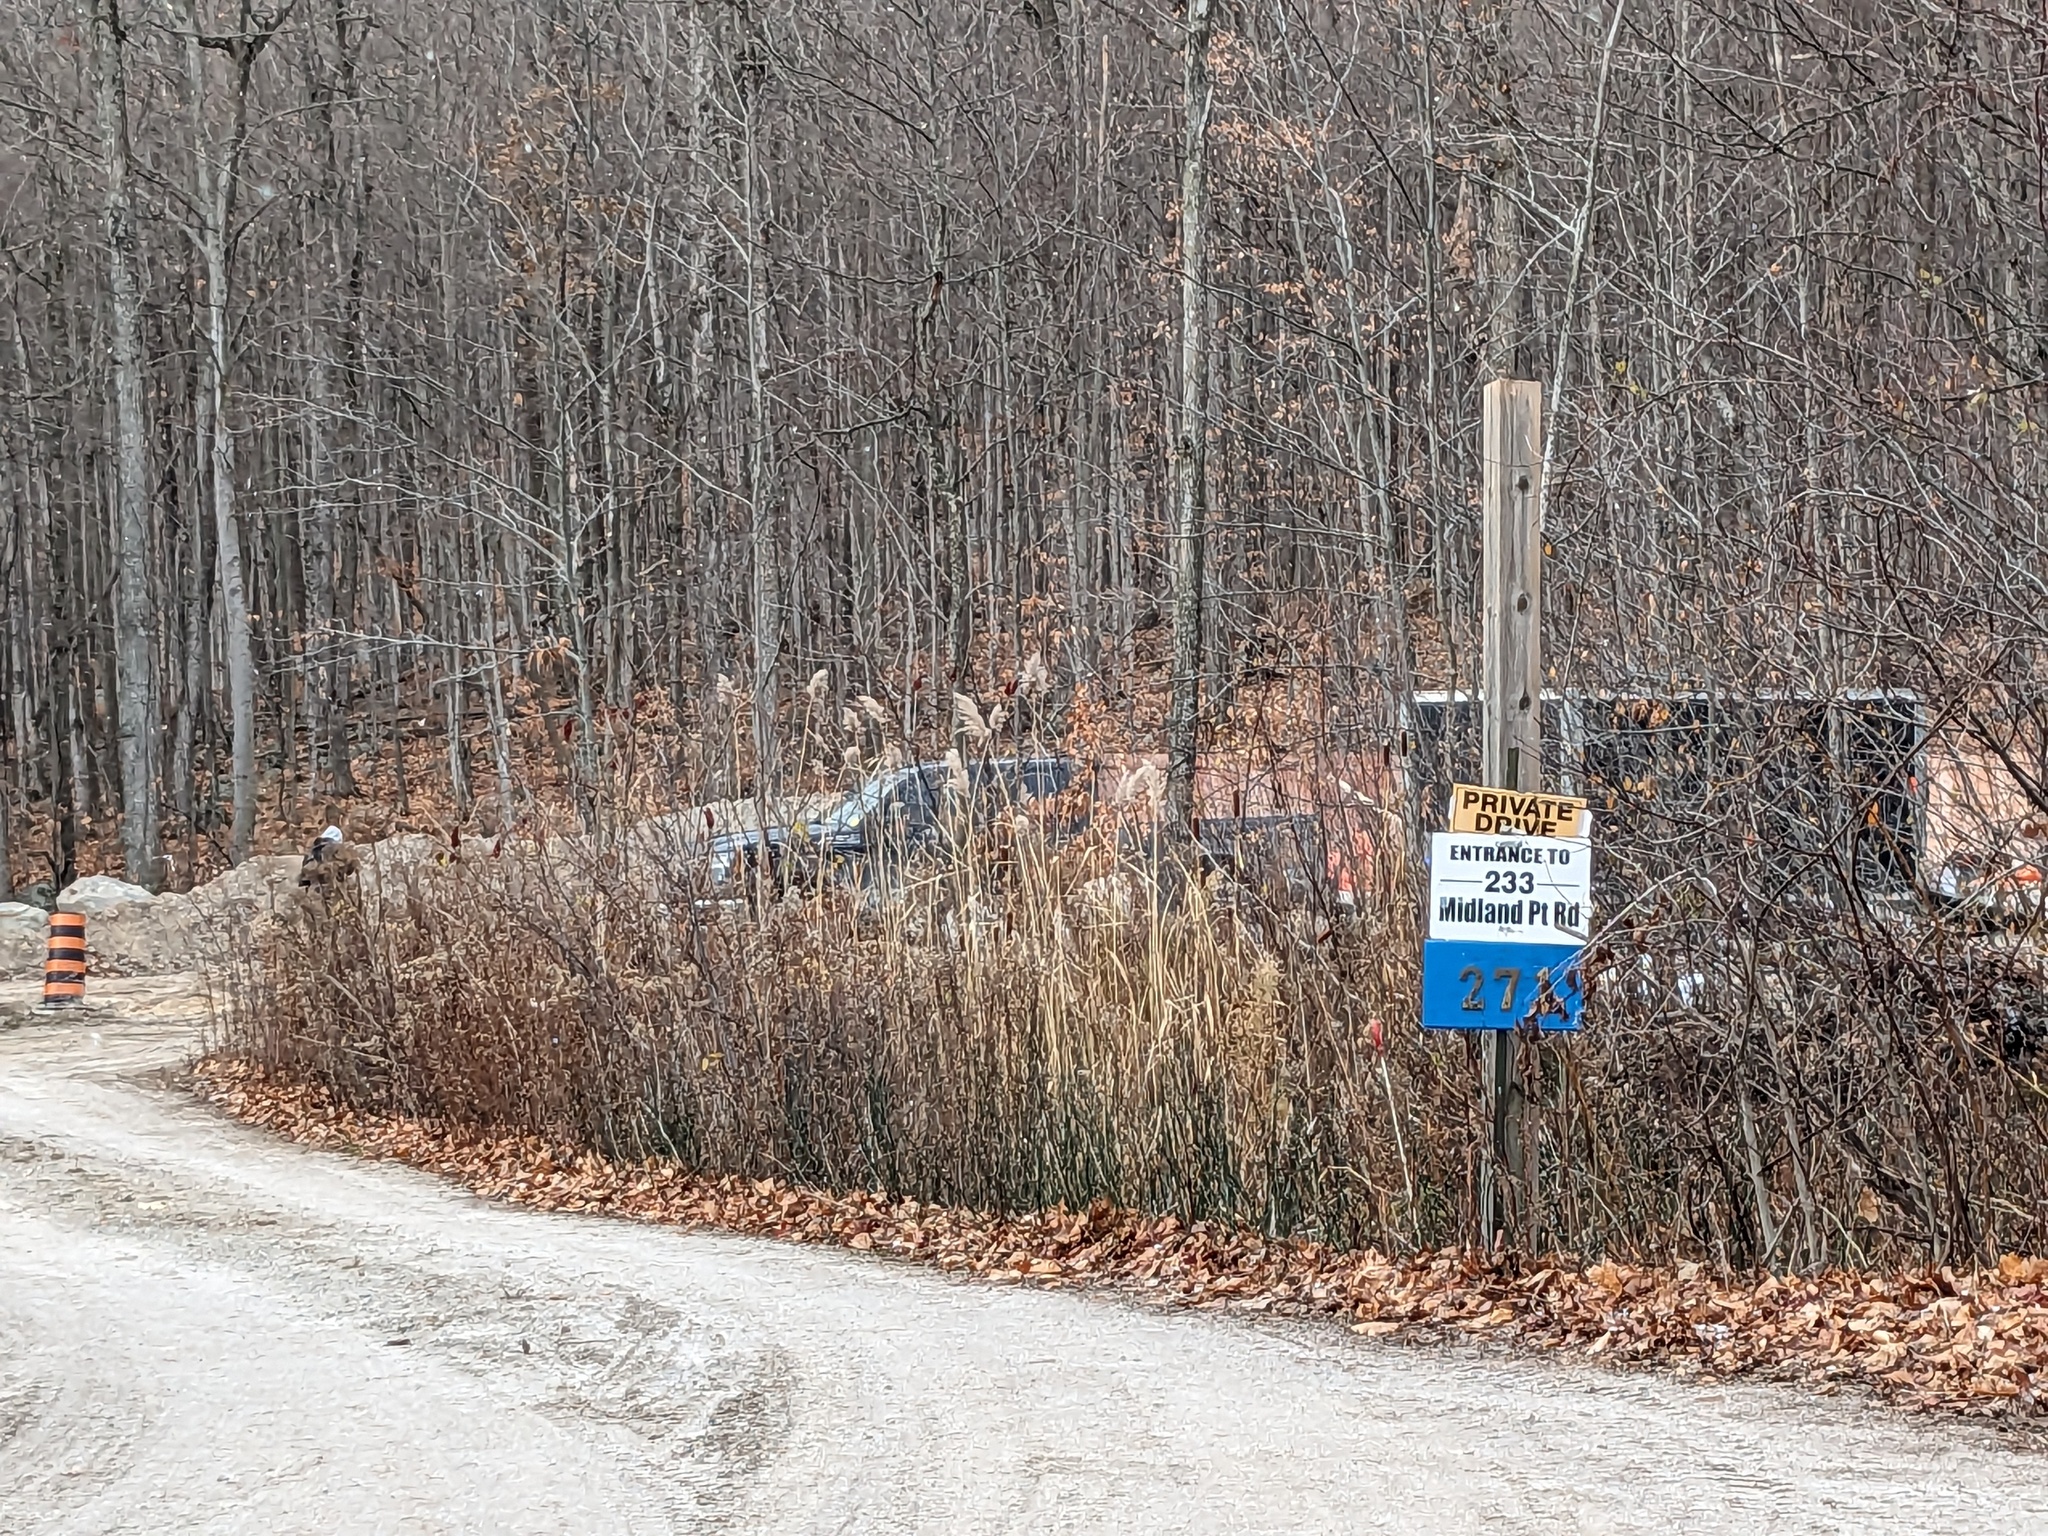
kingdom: Plantae
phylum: Tracheophyta
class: Liliopsida
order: Poales
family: Poaceae
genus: Phragmites
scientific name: Phragmites australis
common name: Common reed
